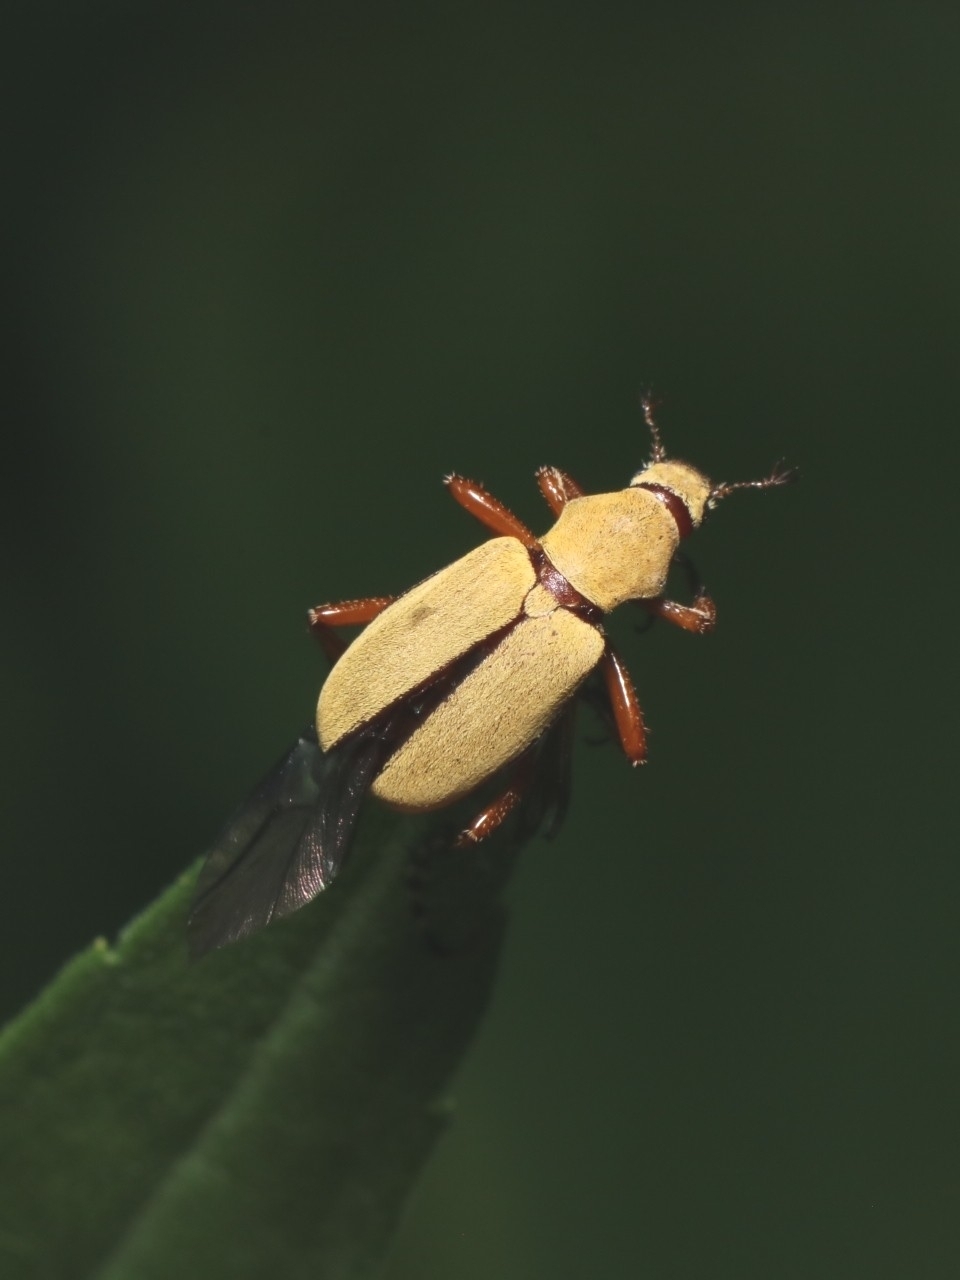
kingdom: Animalia
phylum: Arthropoda
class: Insecta
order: Coleoptera
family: Scarabaeidae
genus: Macrodactylus
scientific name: Macrodactylus subspinosus
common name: American rose chafer
